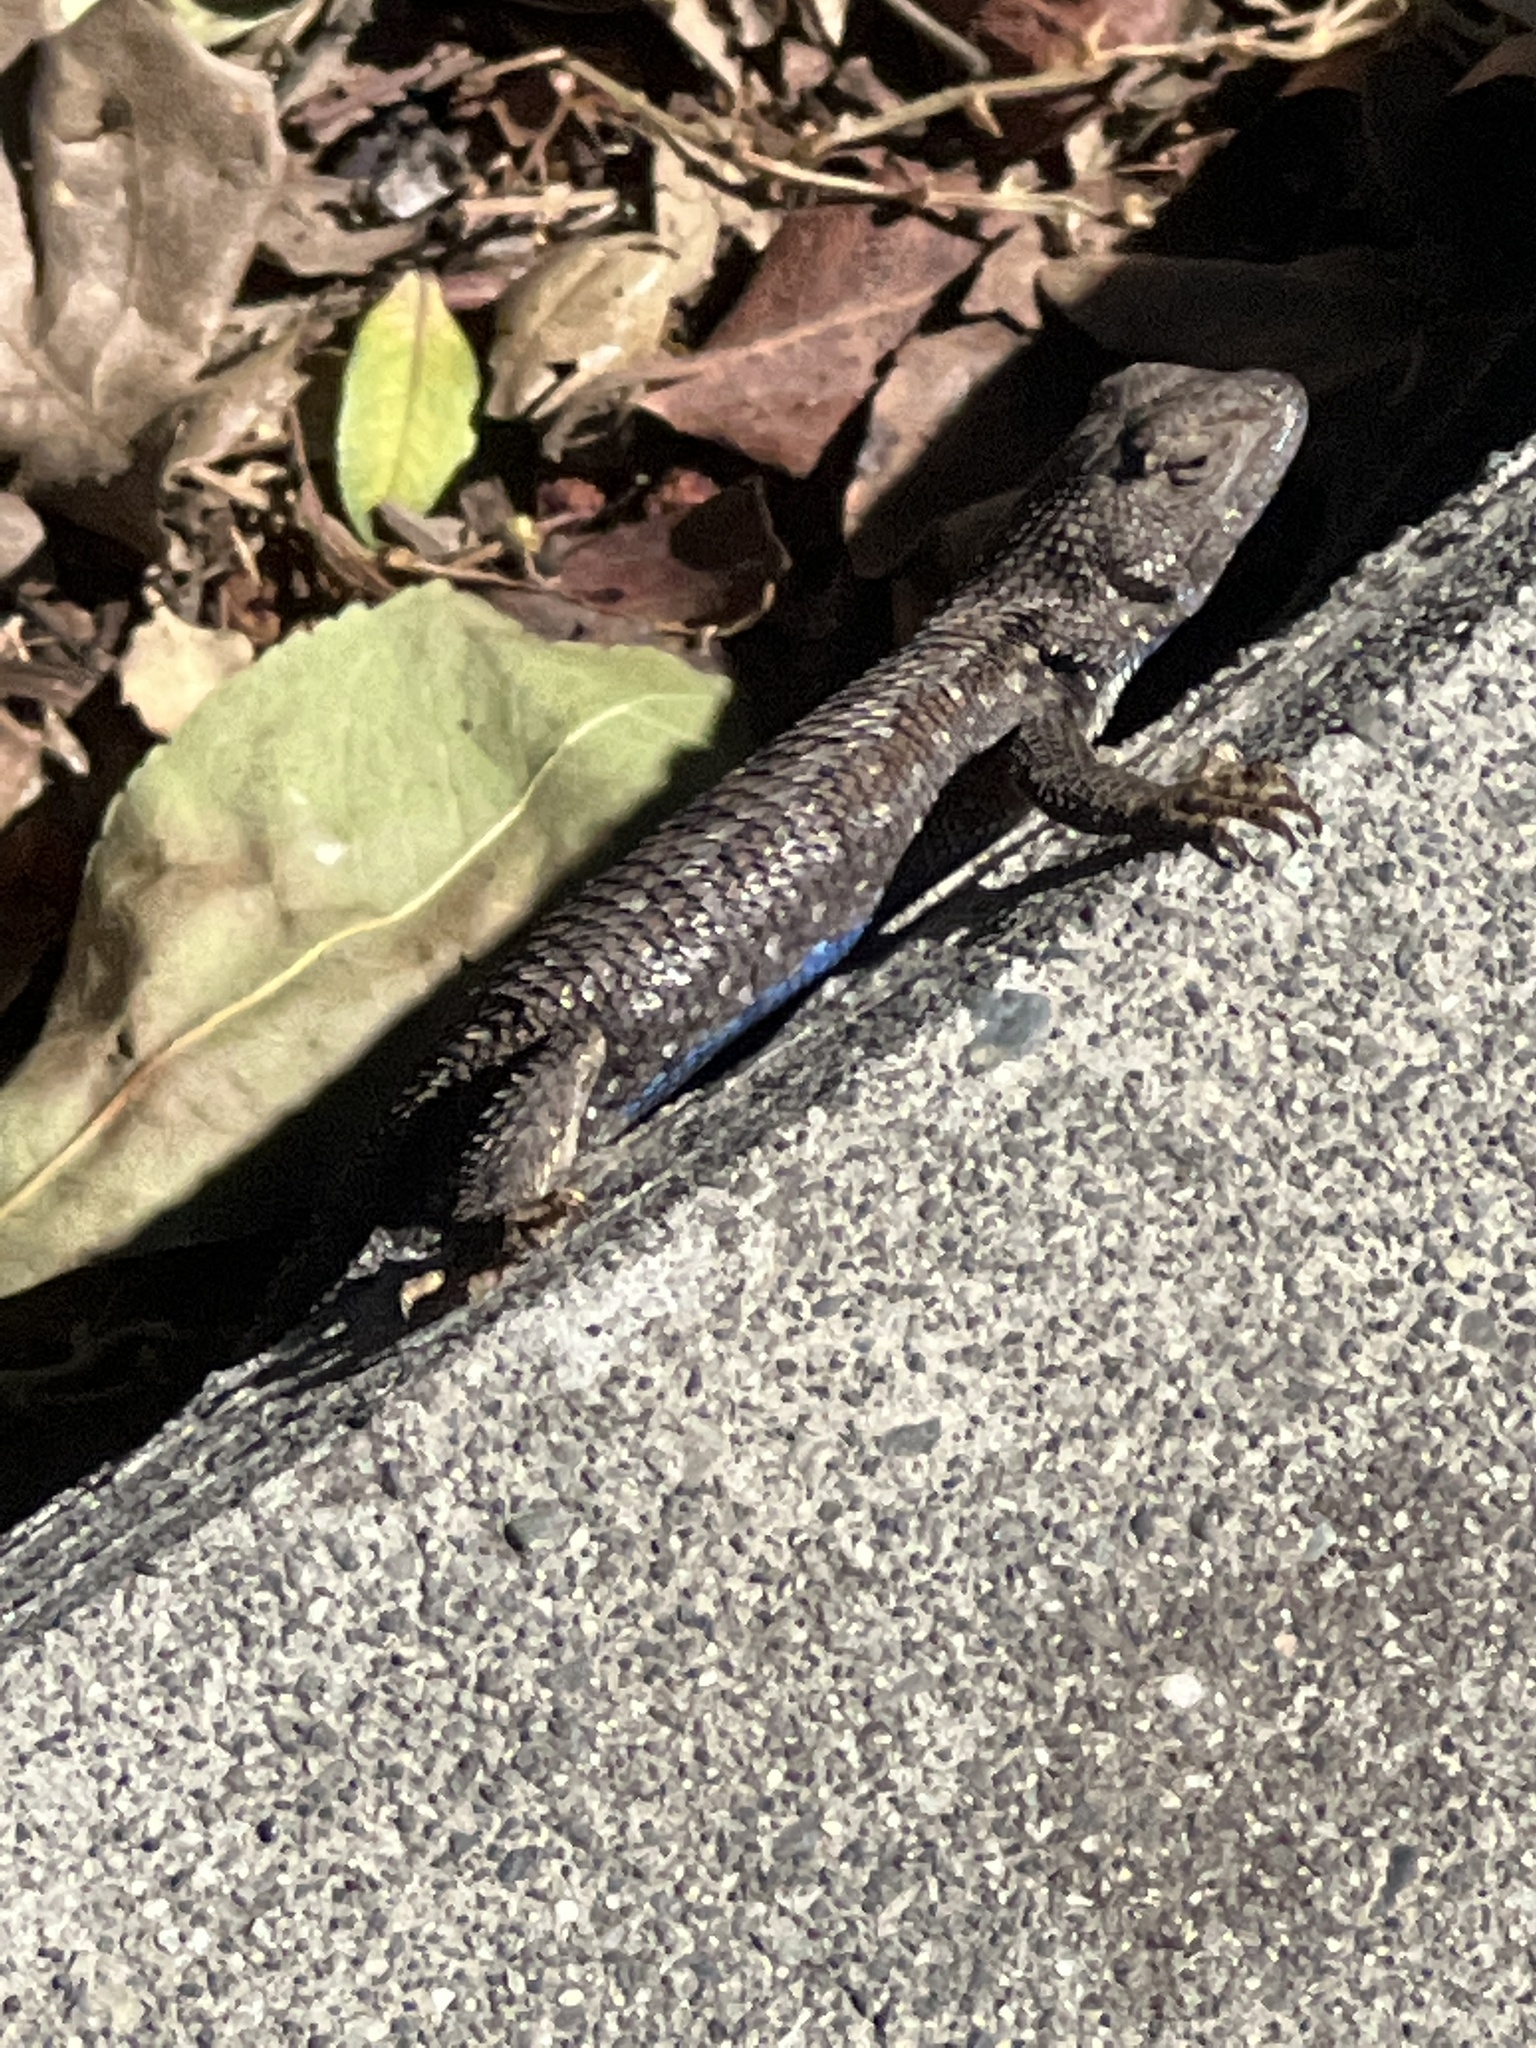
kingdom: Animalia
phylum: Chordata
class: Squamata
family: Phrynosomatidae
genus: Sceloporus
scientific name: Sceloporus occidentalis
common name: Western fence lizard
